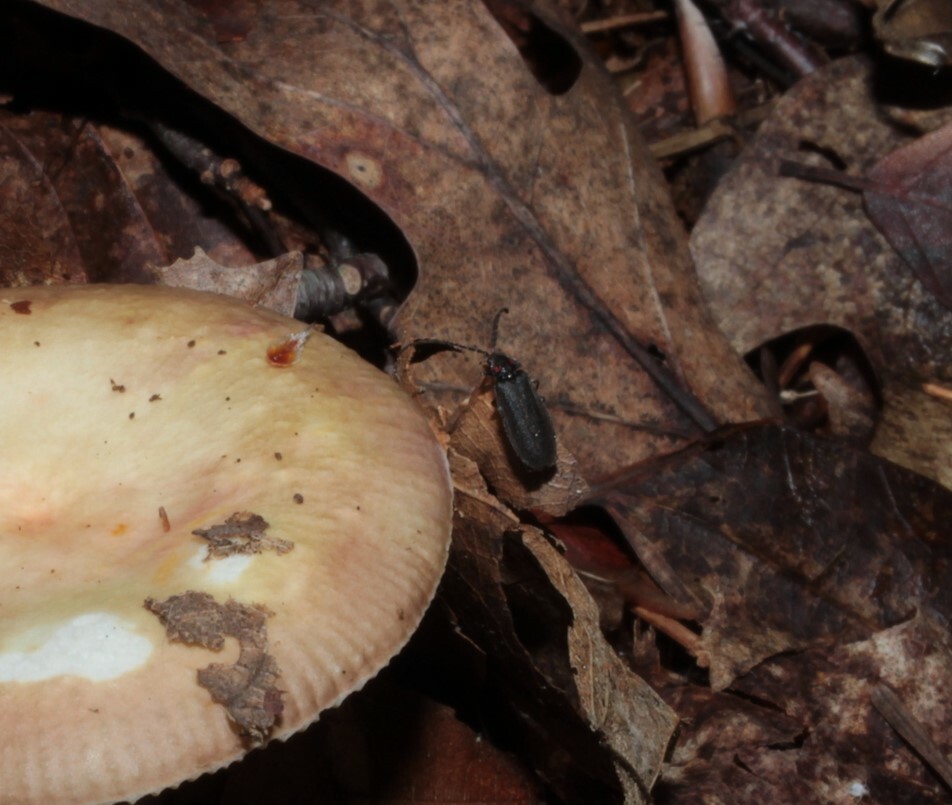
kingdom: Animalia
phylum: Arthropoda
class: Insecta
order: Coleoptera
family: Lampyridae
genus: Lucidota
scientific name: Lucidota punctata
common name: Dotted firefly
